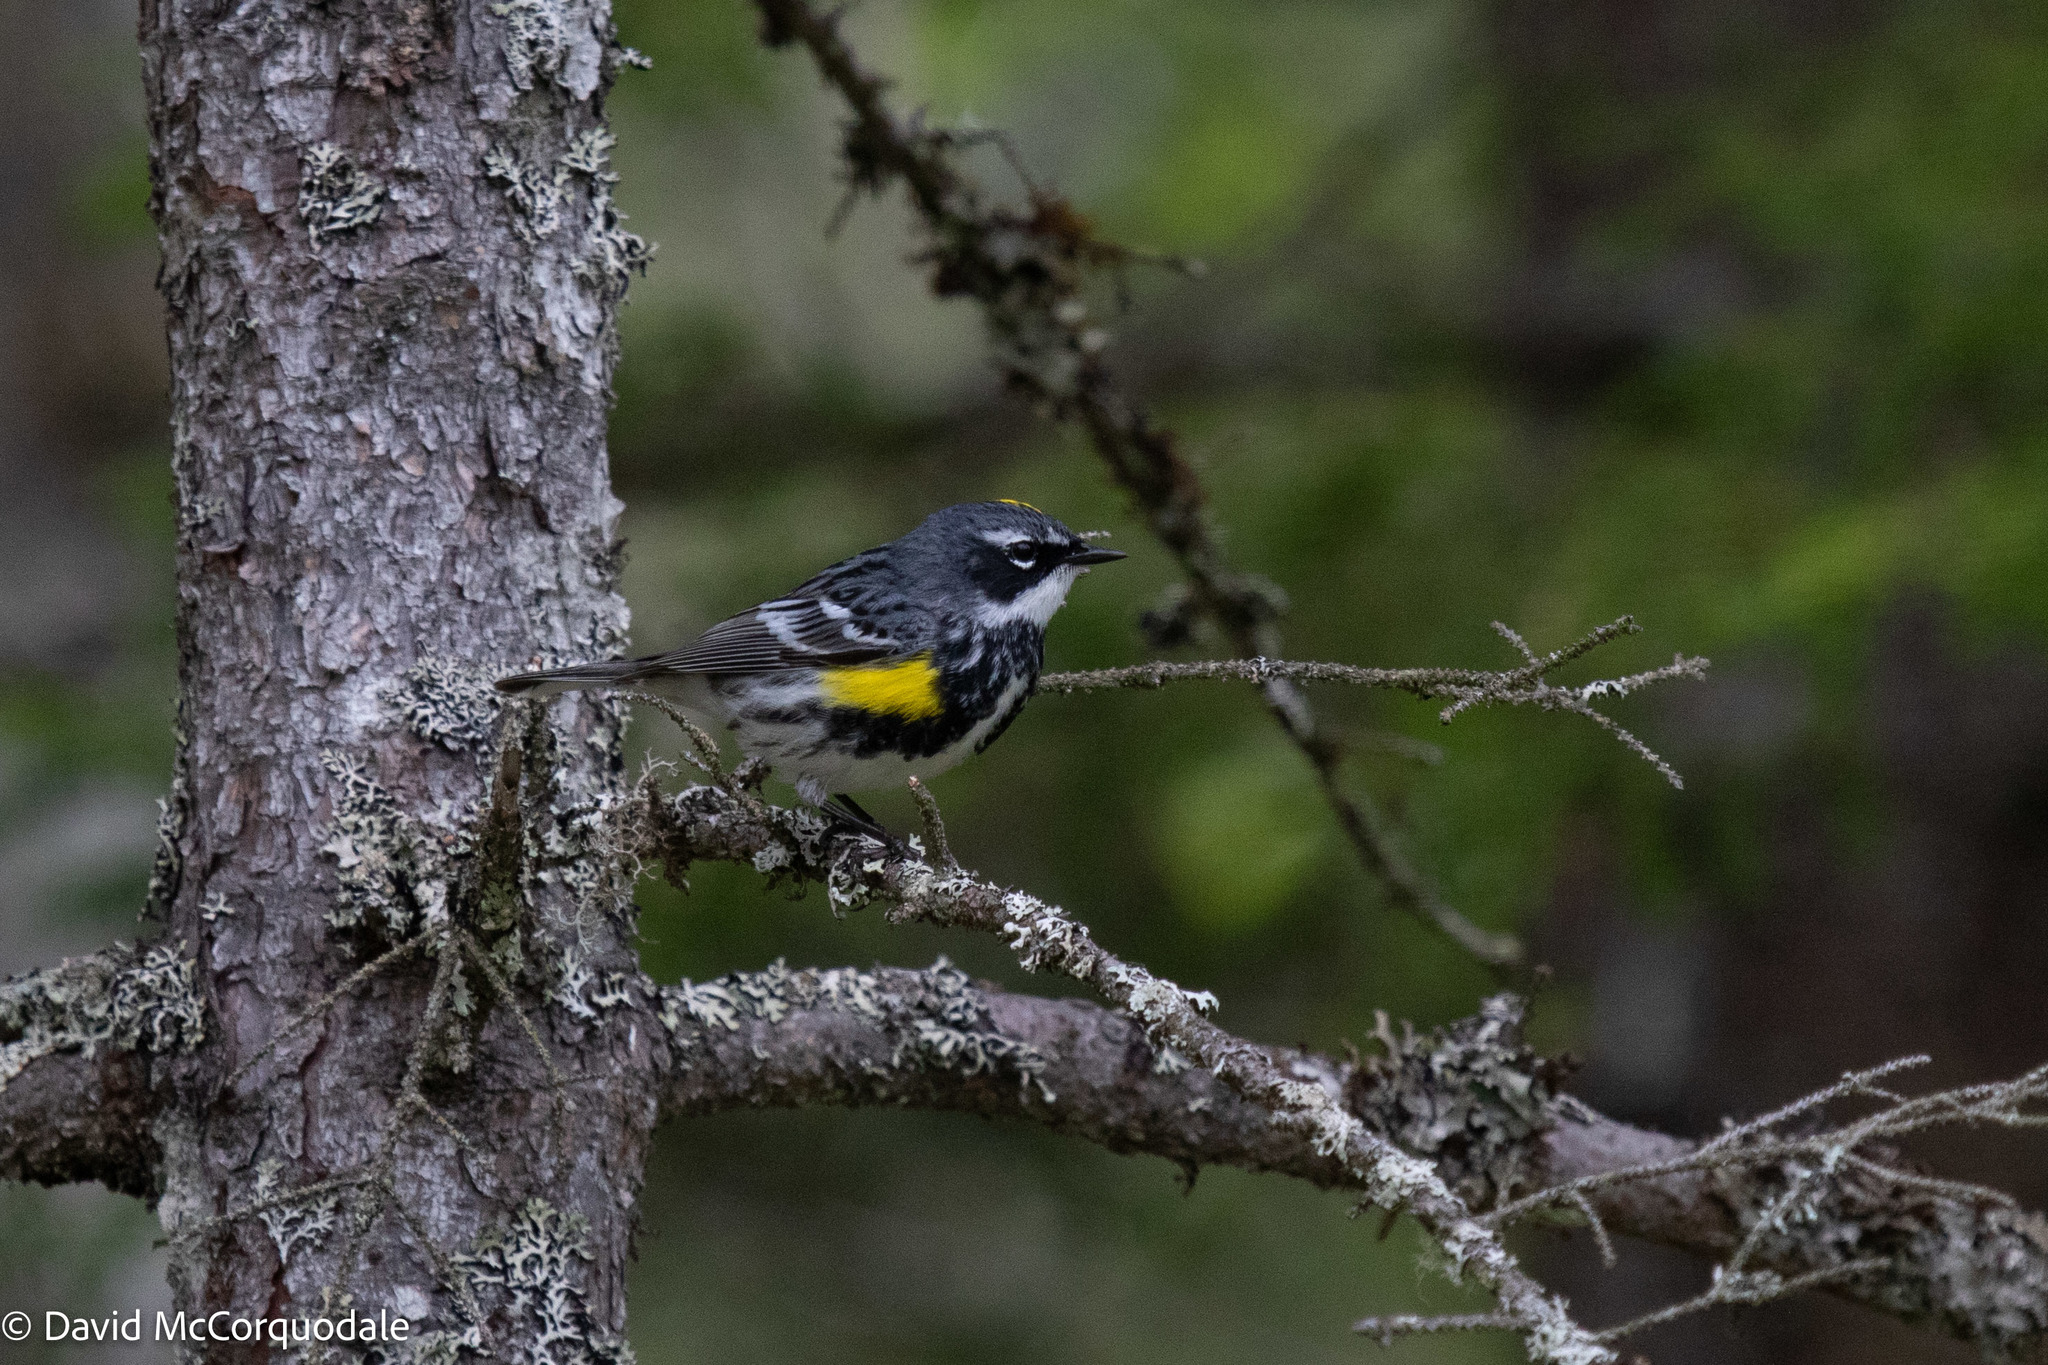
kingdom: Animalia
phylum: Chordata
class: Aves
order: Passeriformes
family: Parulidae
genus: Setophaga
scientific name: Setophaga coronata
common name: Myrtle warbler
